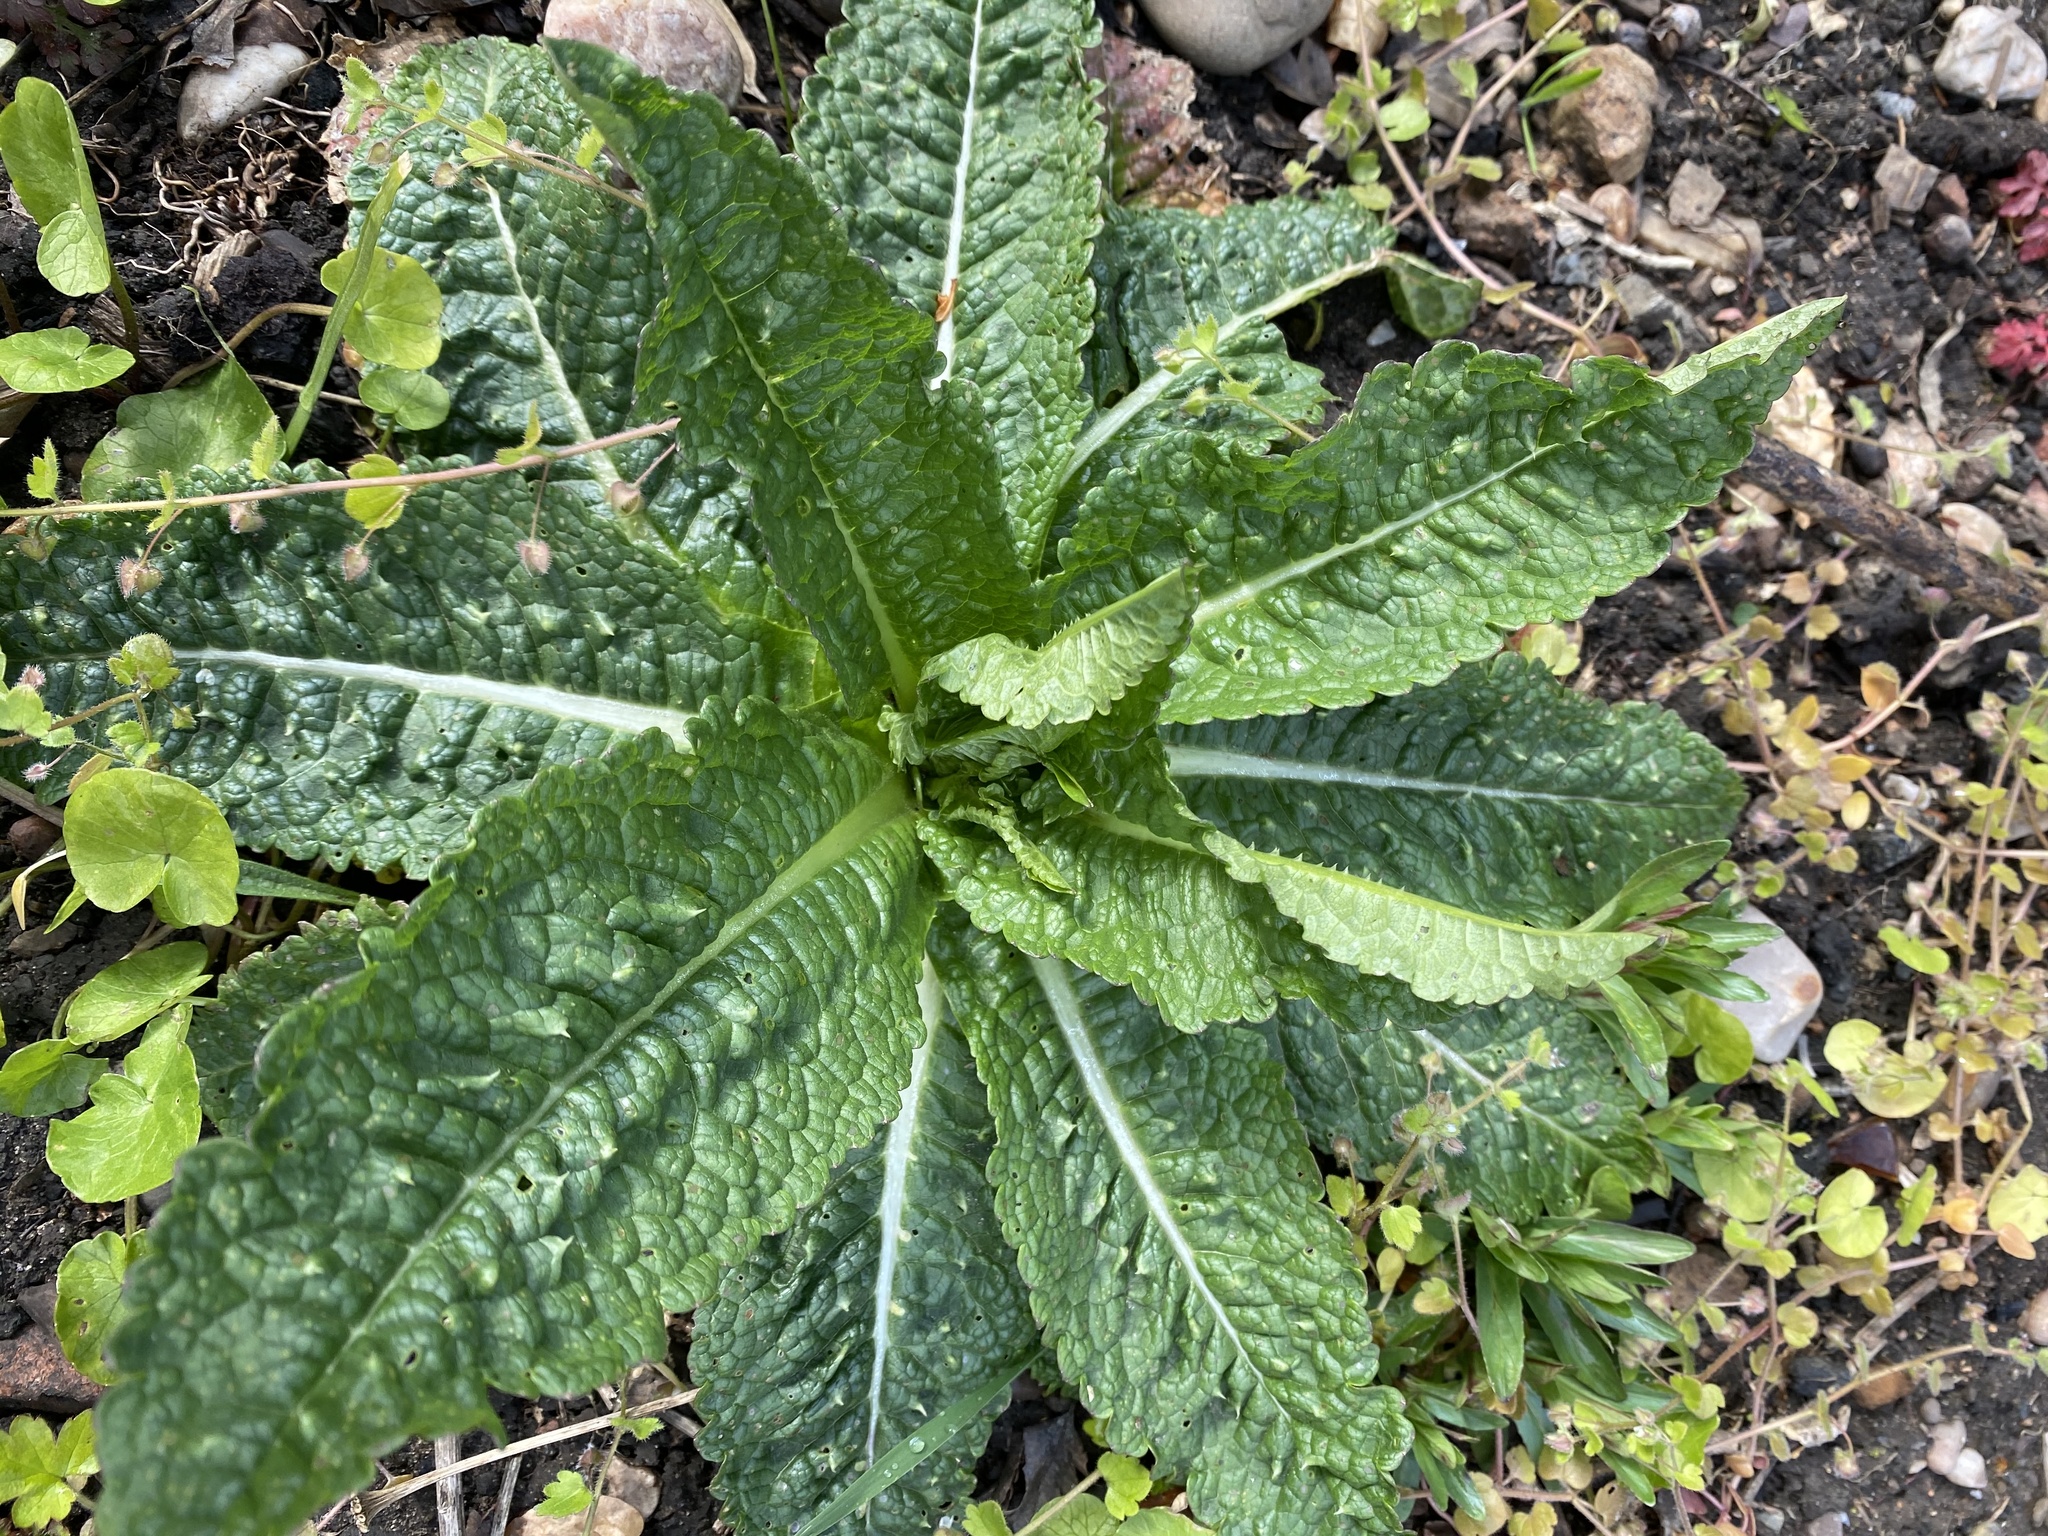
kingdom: Plantae
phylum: Tracheophyta
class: Magnoliopsida
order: Dipsacales
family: Caprifoliaceae
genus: Dipsacus
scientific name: Dipsacus fullonum
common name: Teasel
